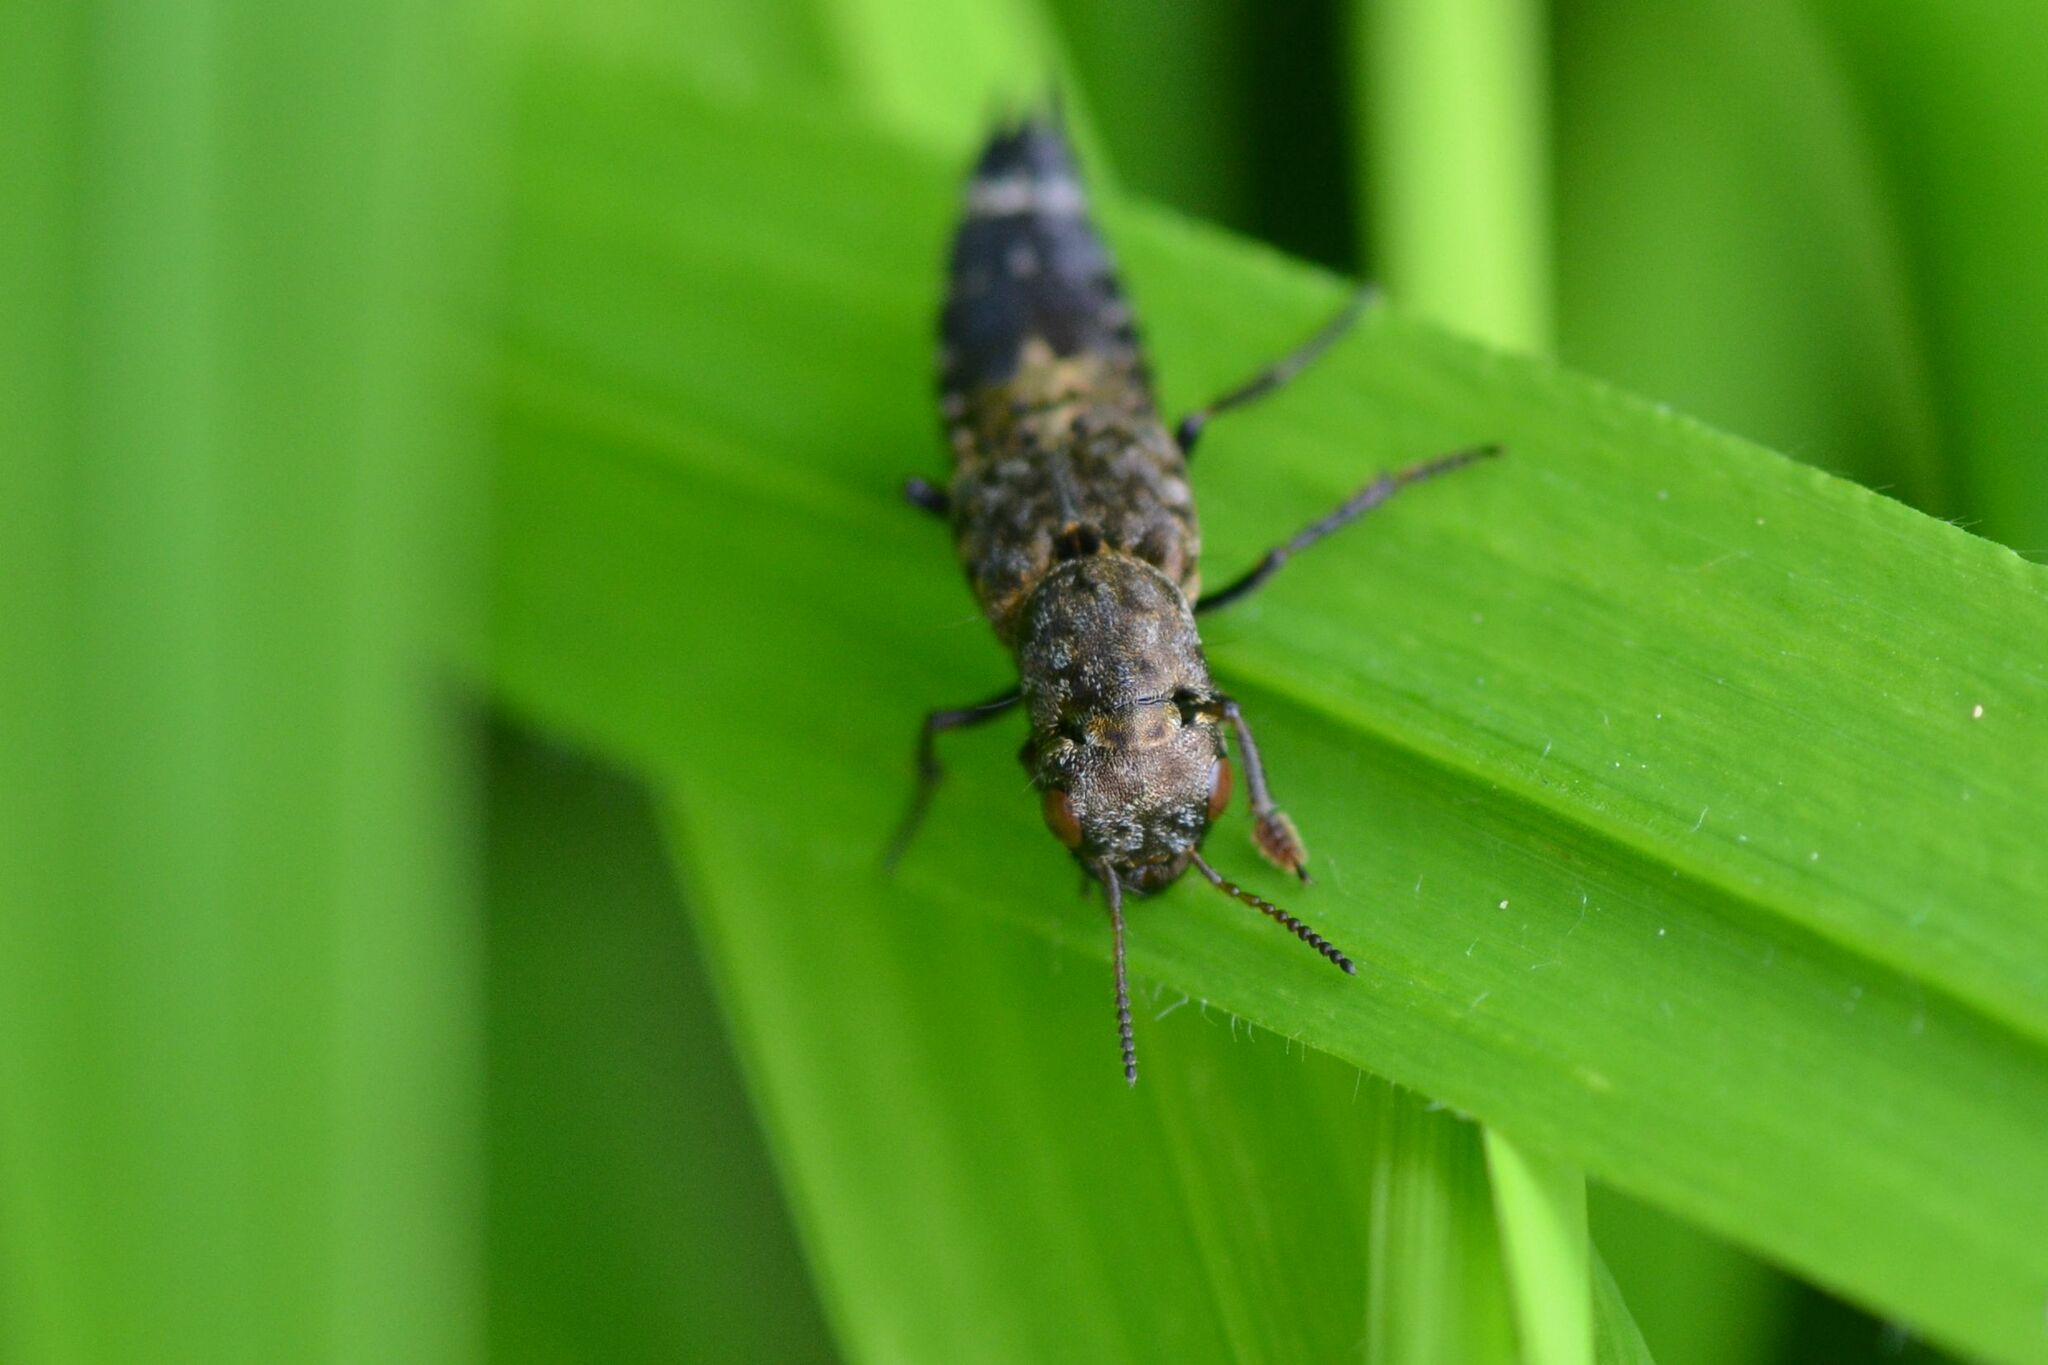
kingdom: Animalia
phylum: Arthropoda
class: Insecta
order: Coleoptera
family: Staphylinidae
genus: Ontholestes
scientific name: Ontholestes murinus
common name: Staph beetle
